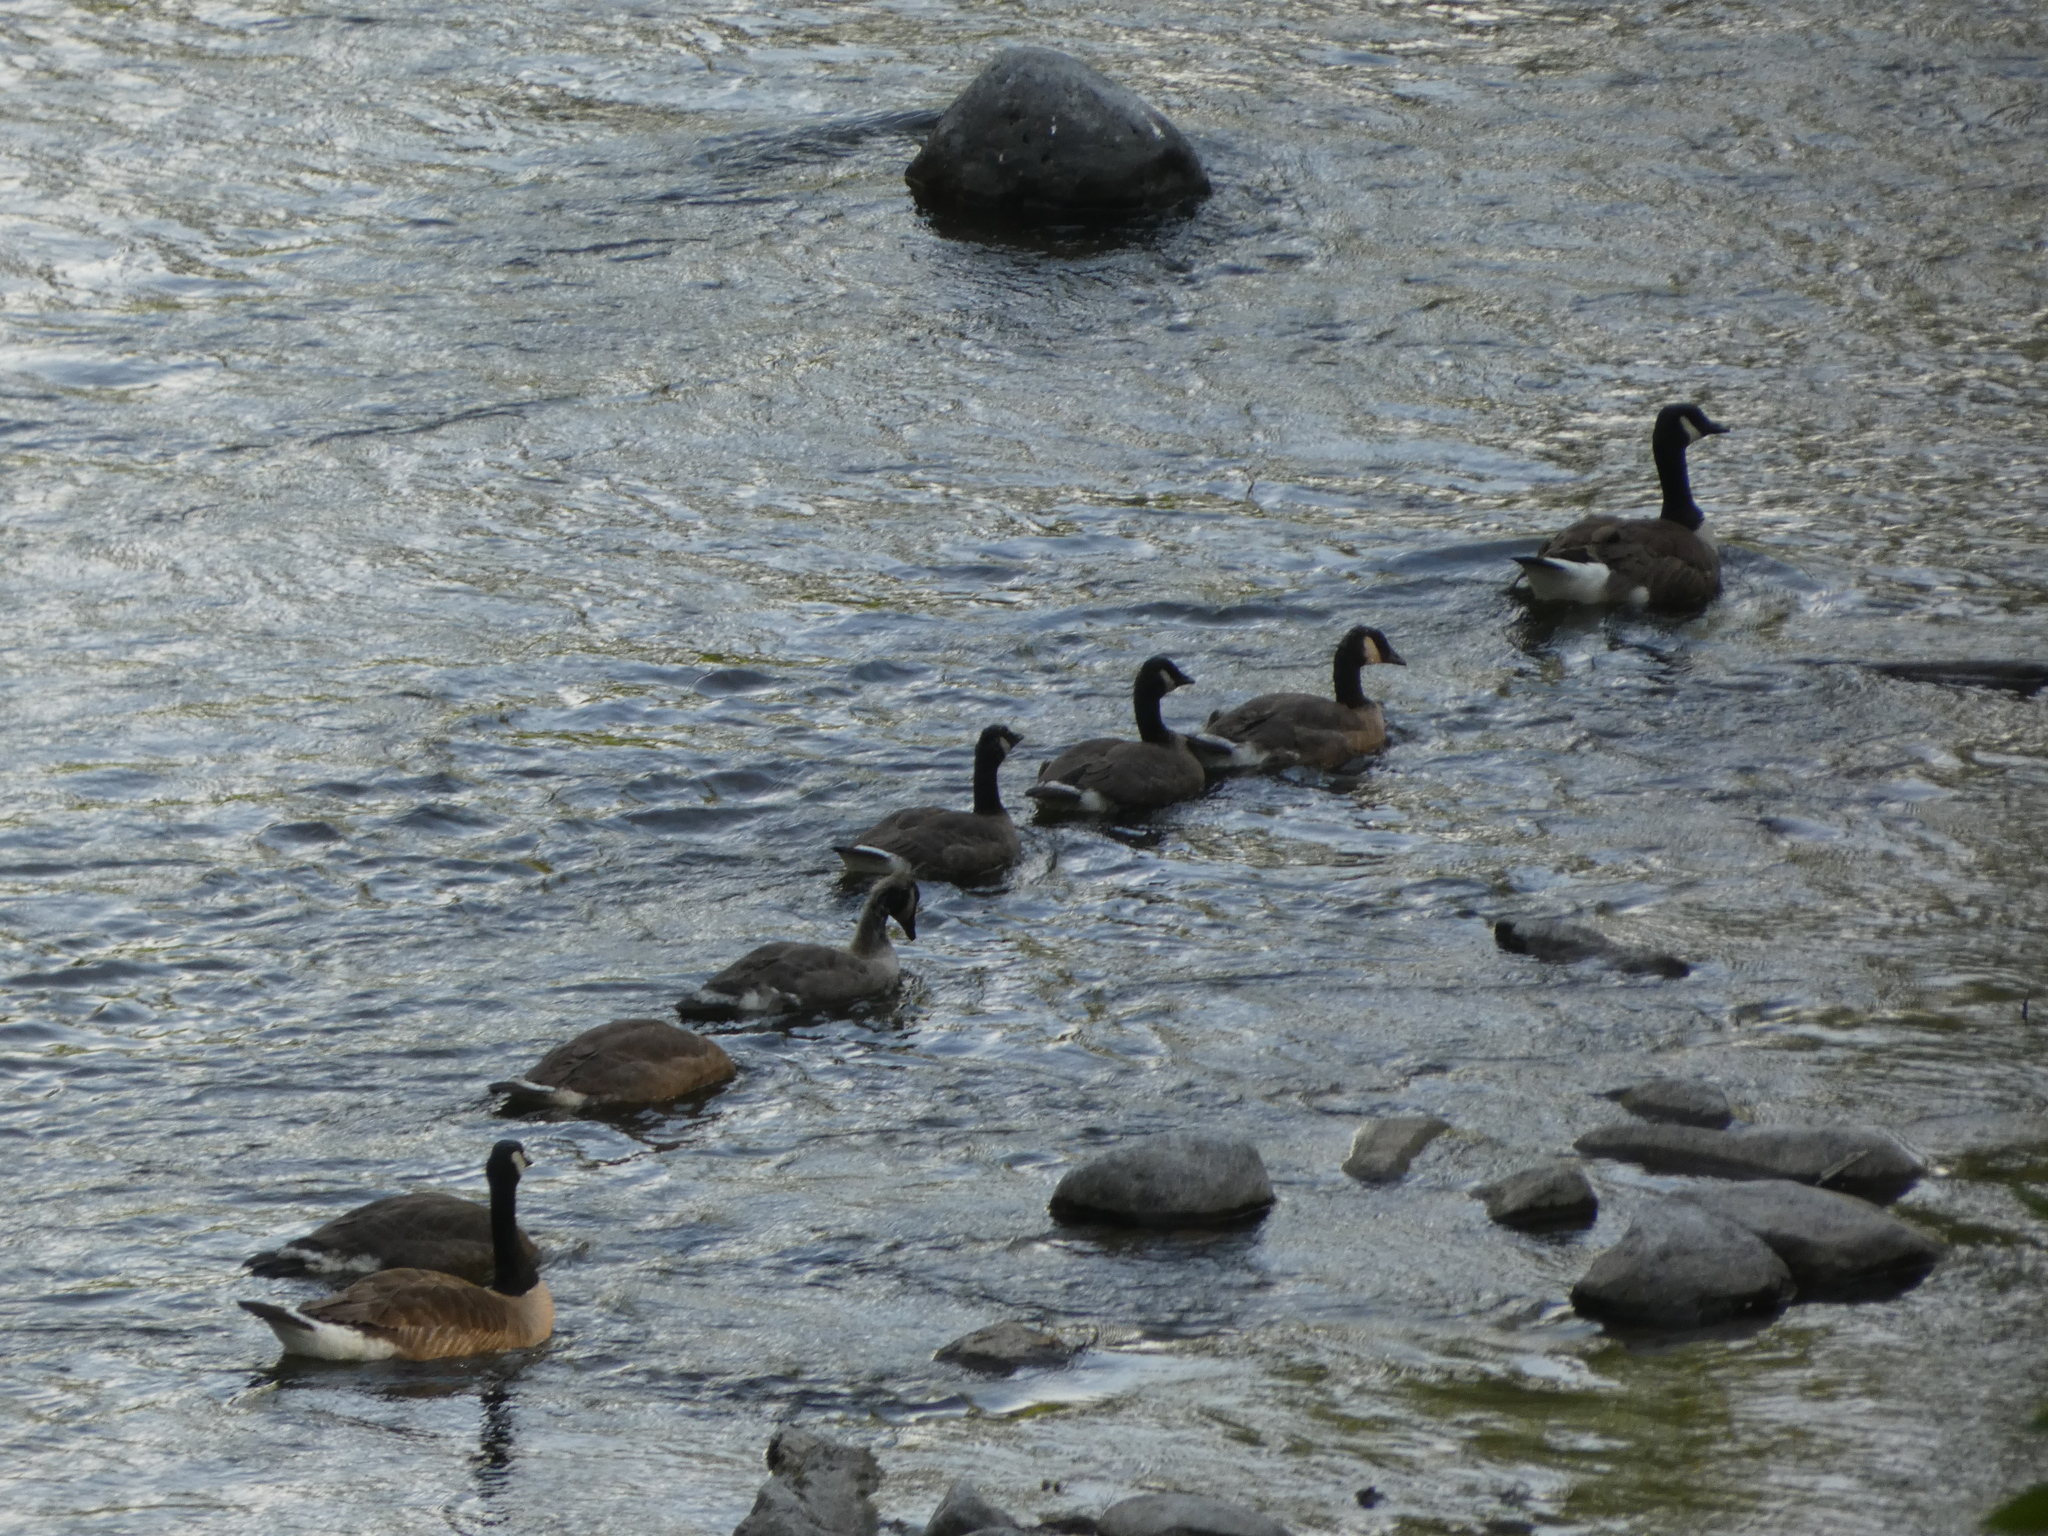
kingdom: Animalia
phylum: Chordata
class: Aves
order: Anseriformes
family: Anatidae
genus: Branta
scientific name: Branta canadensis
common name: Canada goose
